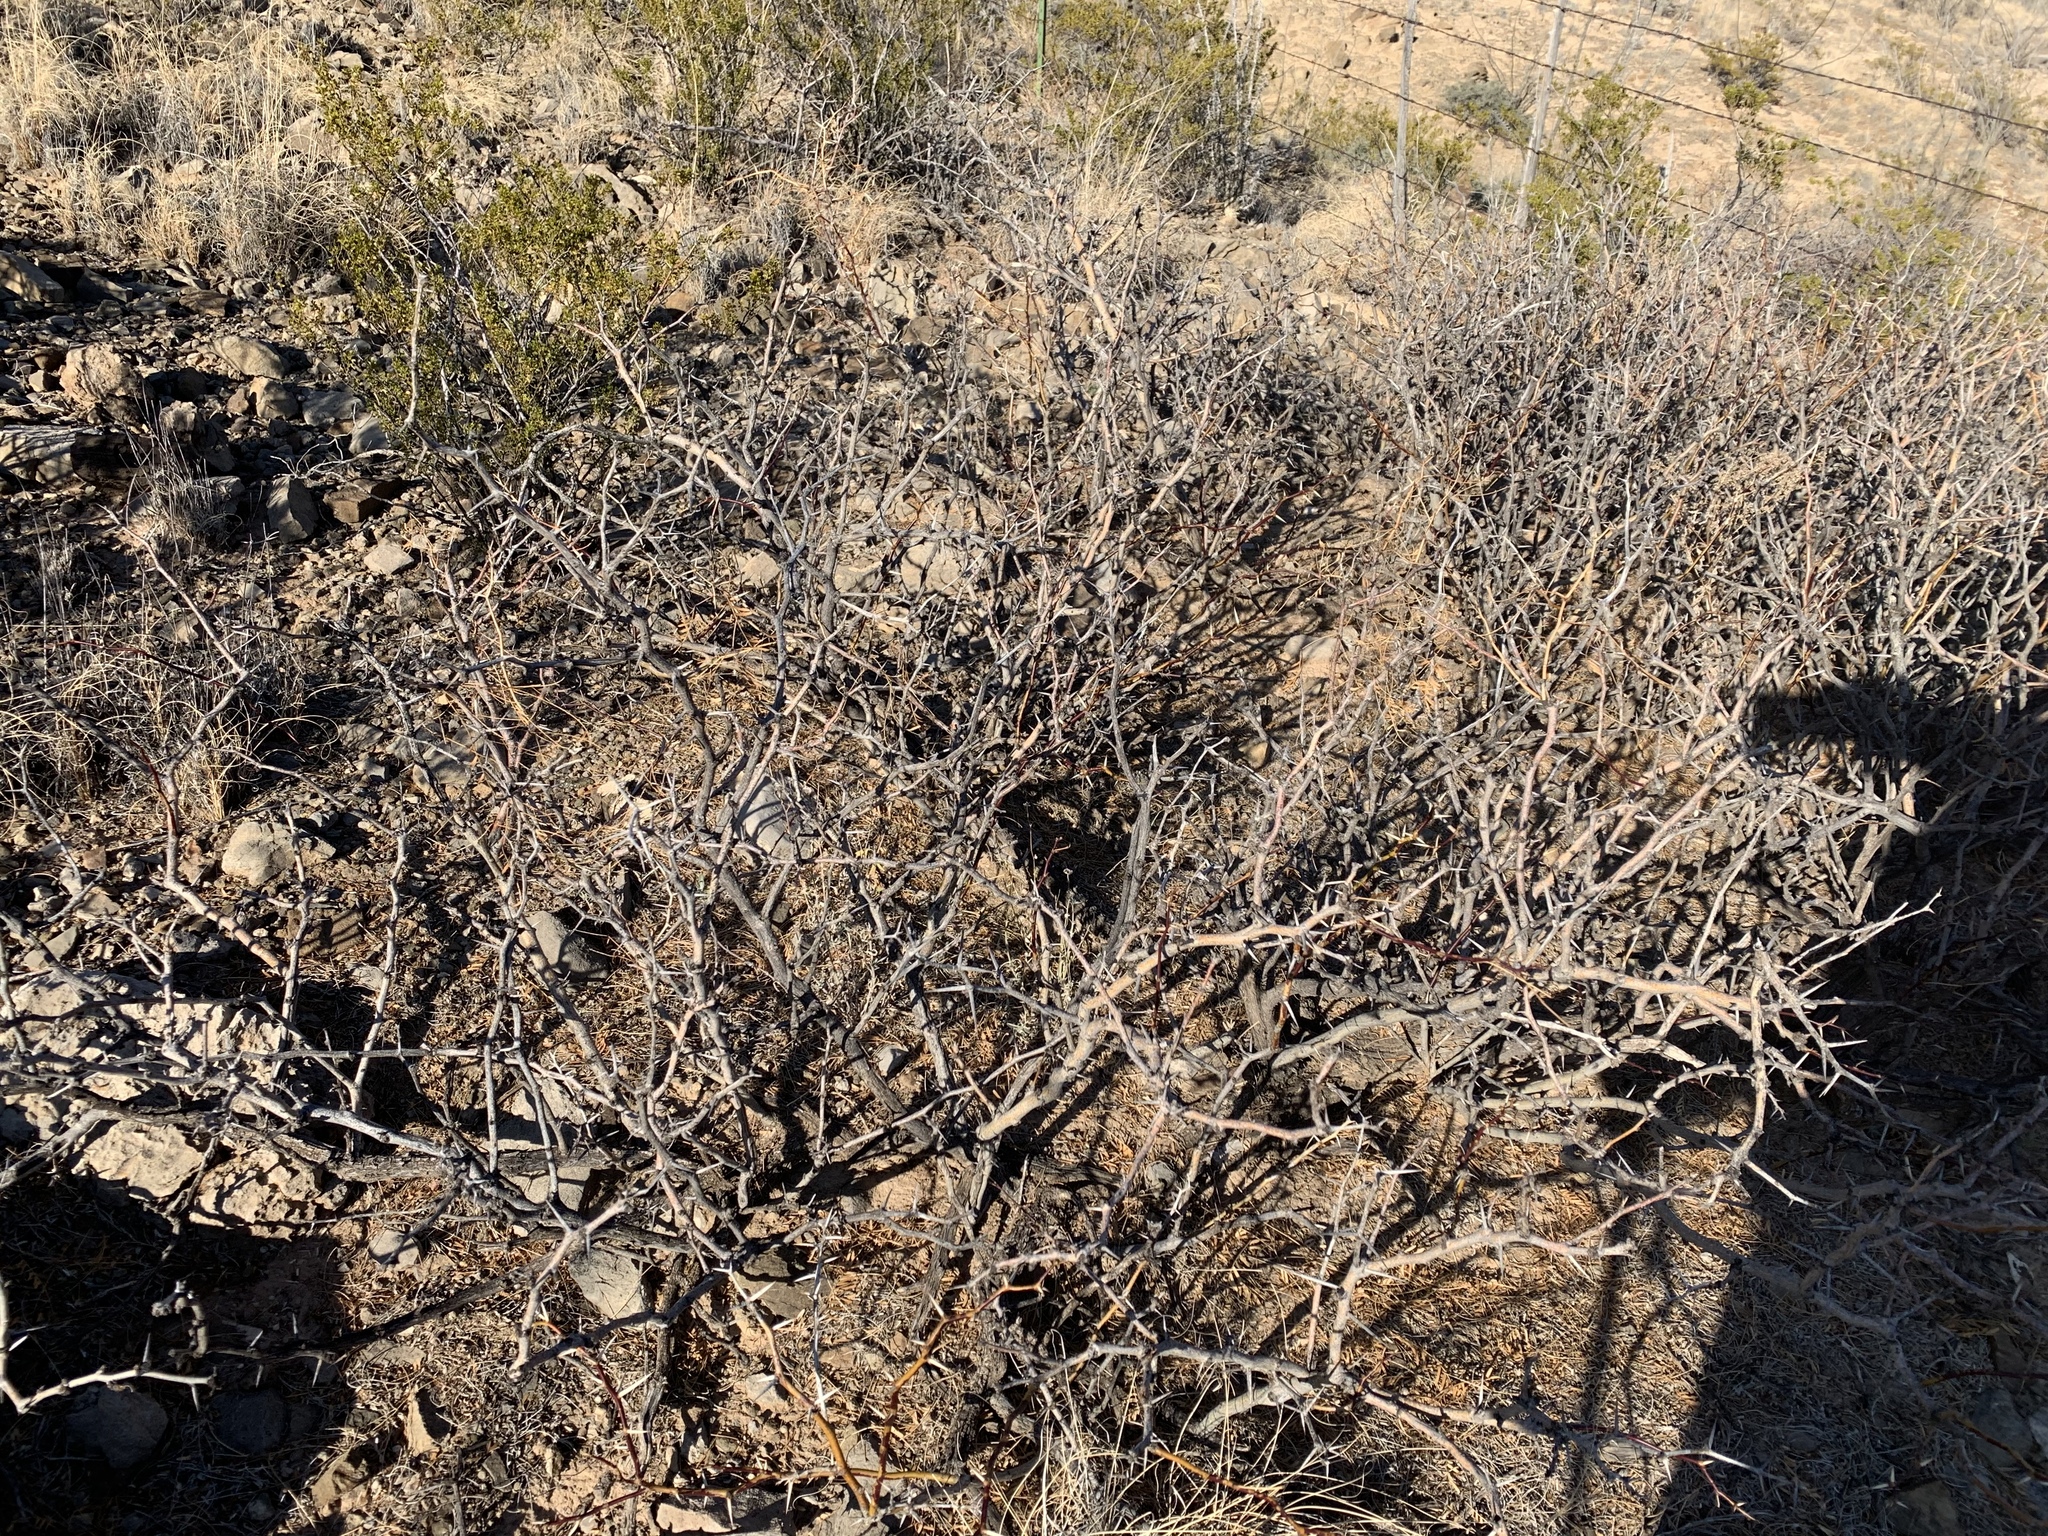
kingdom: Plantae
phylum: Tracheophyta
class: Magnoliopsida
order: Fabales
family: Fabaceae
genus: Prosopis
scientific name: Prosopis glandulosa
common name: Honey mesquite
